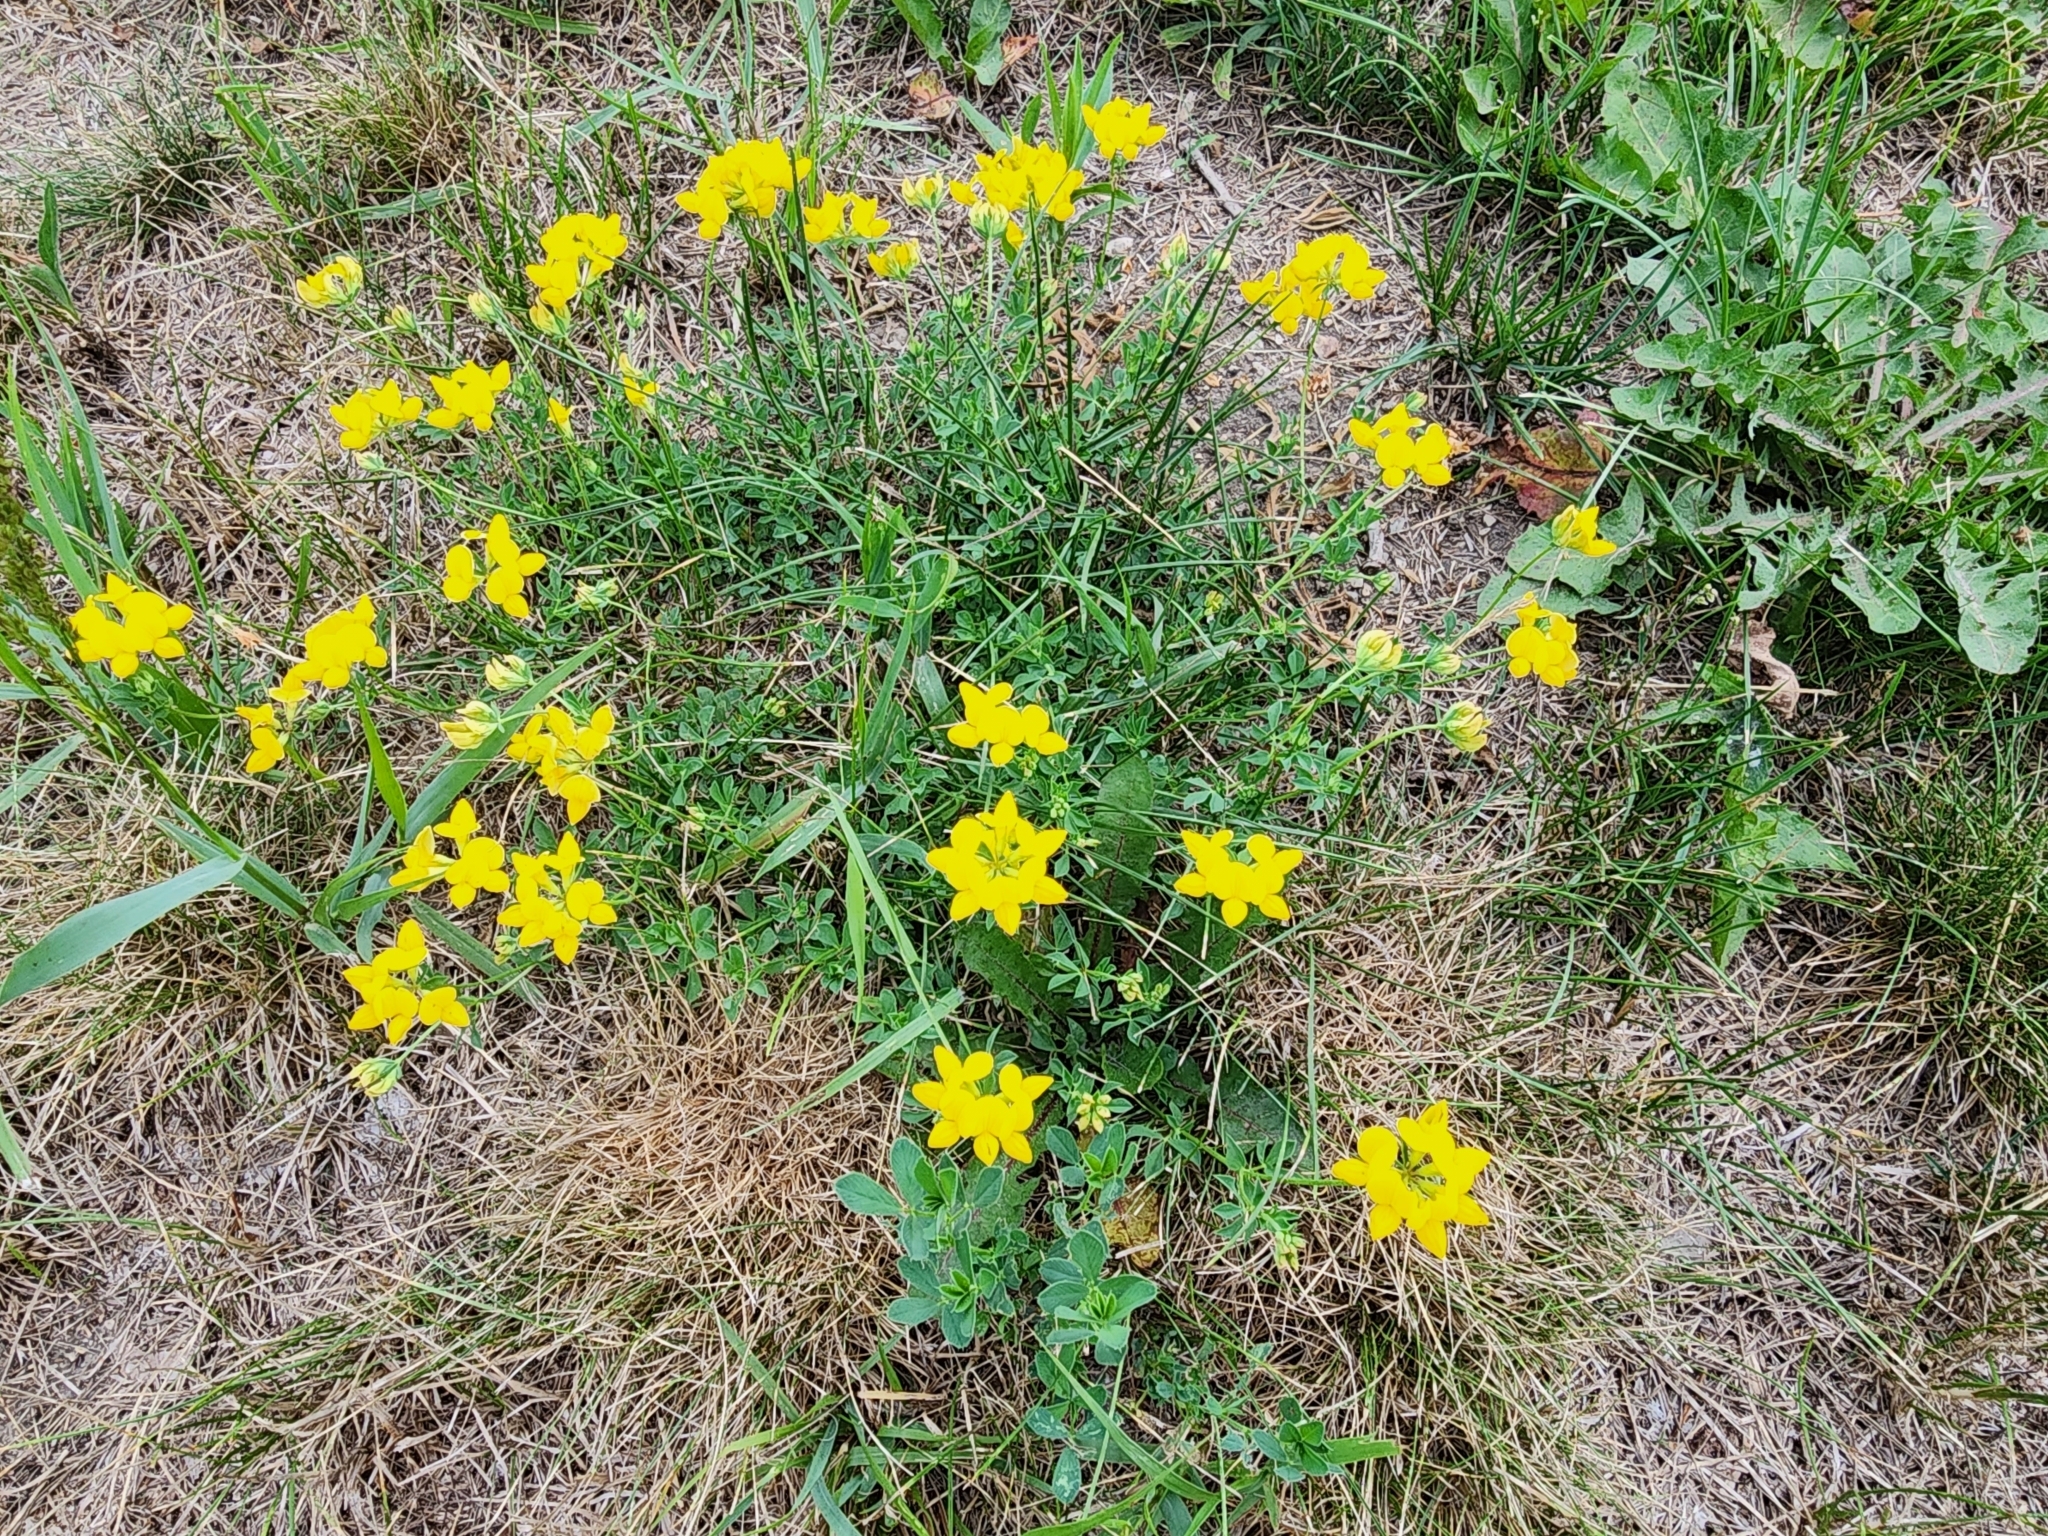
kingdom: Plantae
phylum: Tracheophyta
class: Magnoliopsida
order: Fabales
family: Fabaceae
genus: Lotus
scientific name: Lotus corniculatus
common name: Common bird's-foot-trefoil
